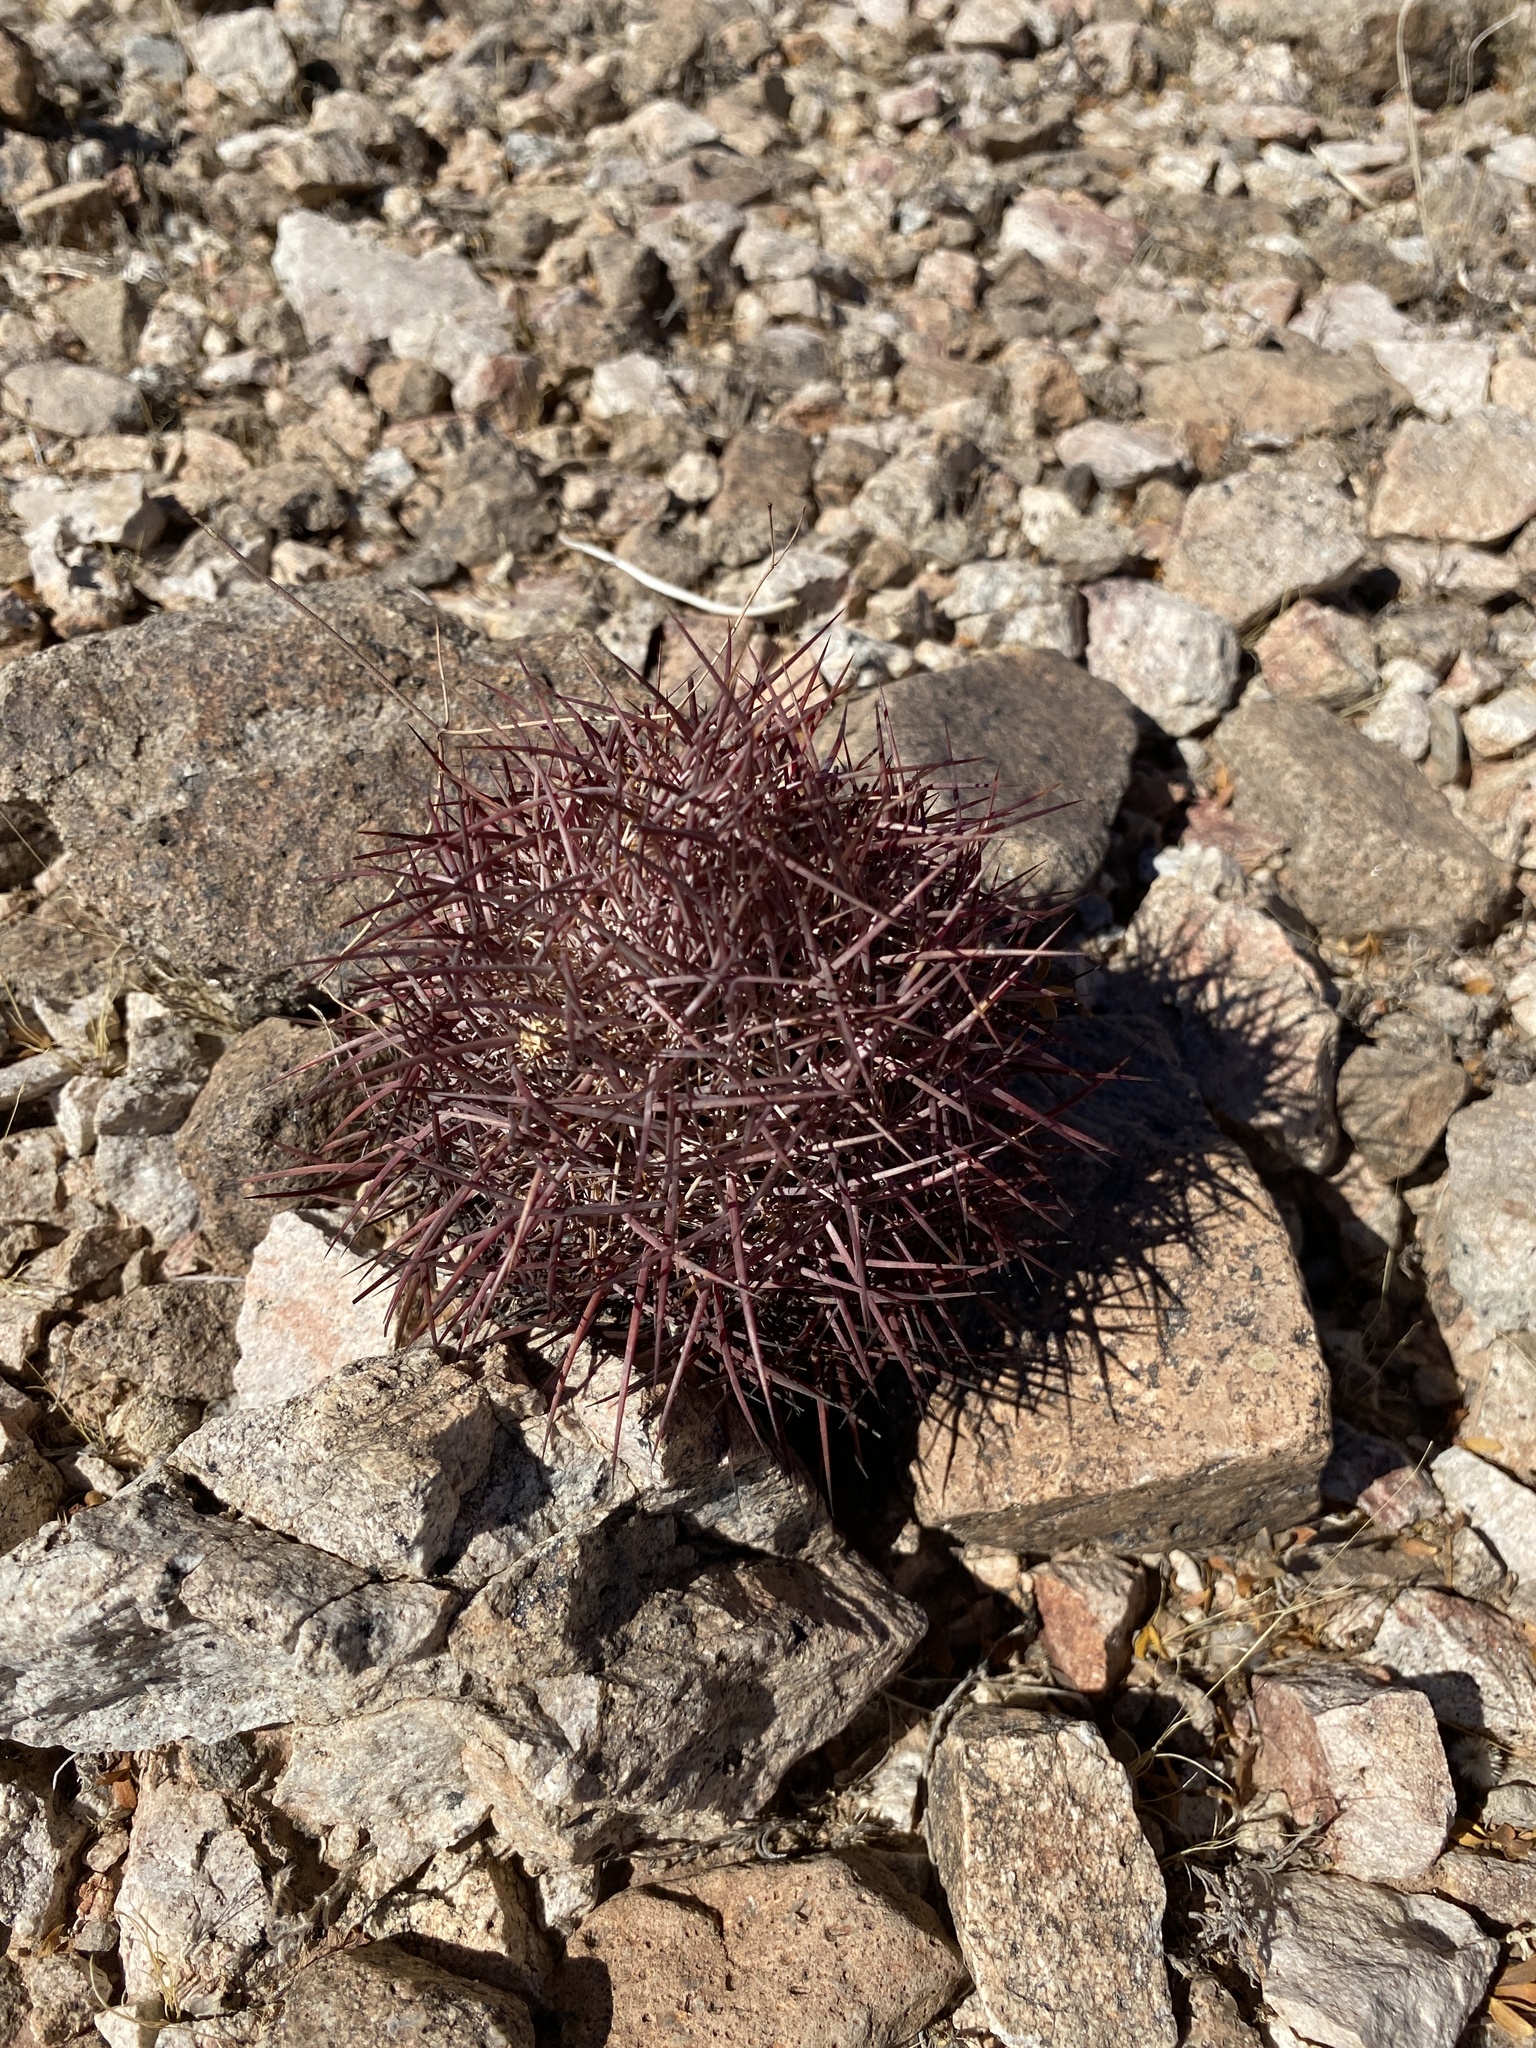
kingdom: Plantae
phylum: Tracheophyta
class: Magnoliopsida
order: Caryophyllales
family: Cactaceae
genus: Sclerocactus
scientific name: Sclerocactus johnsonii
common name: Eight-spine fishhook cactus
